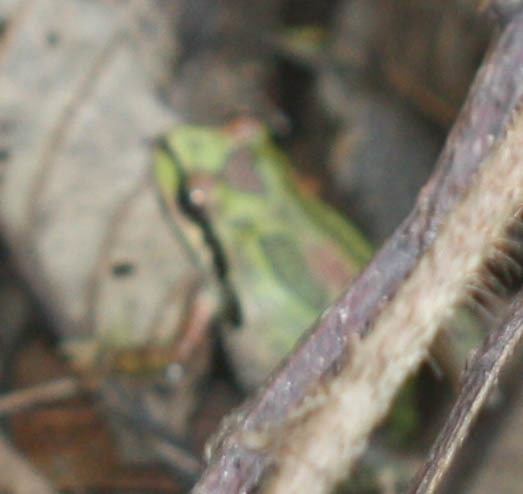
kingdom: Animalia
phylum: Chordata
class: Amphibia
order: Anura
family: Hylidae
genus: Pseudacris
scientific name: Pseudacris regilla
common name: Pacific chorus frog
